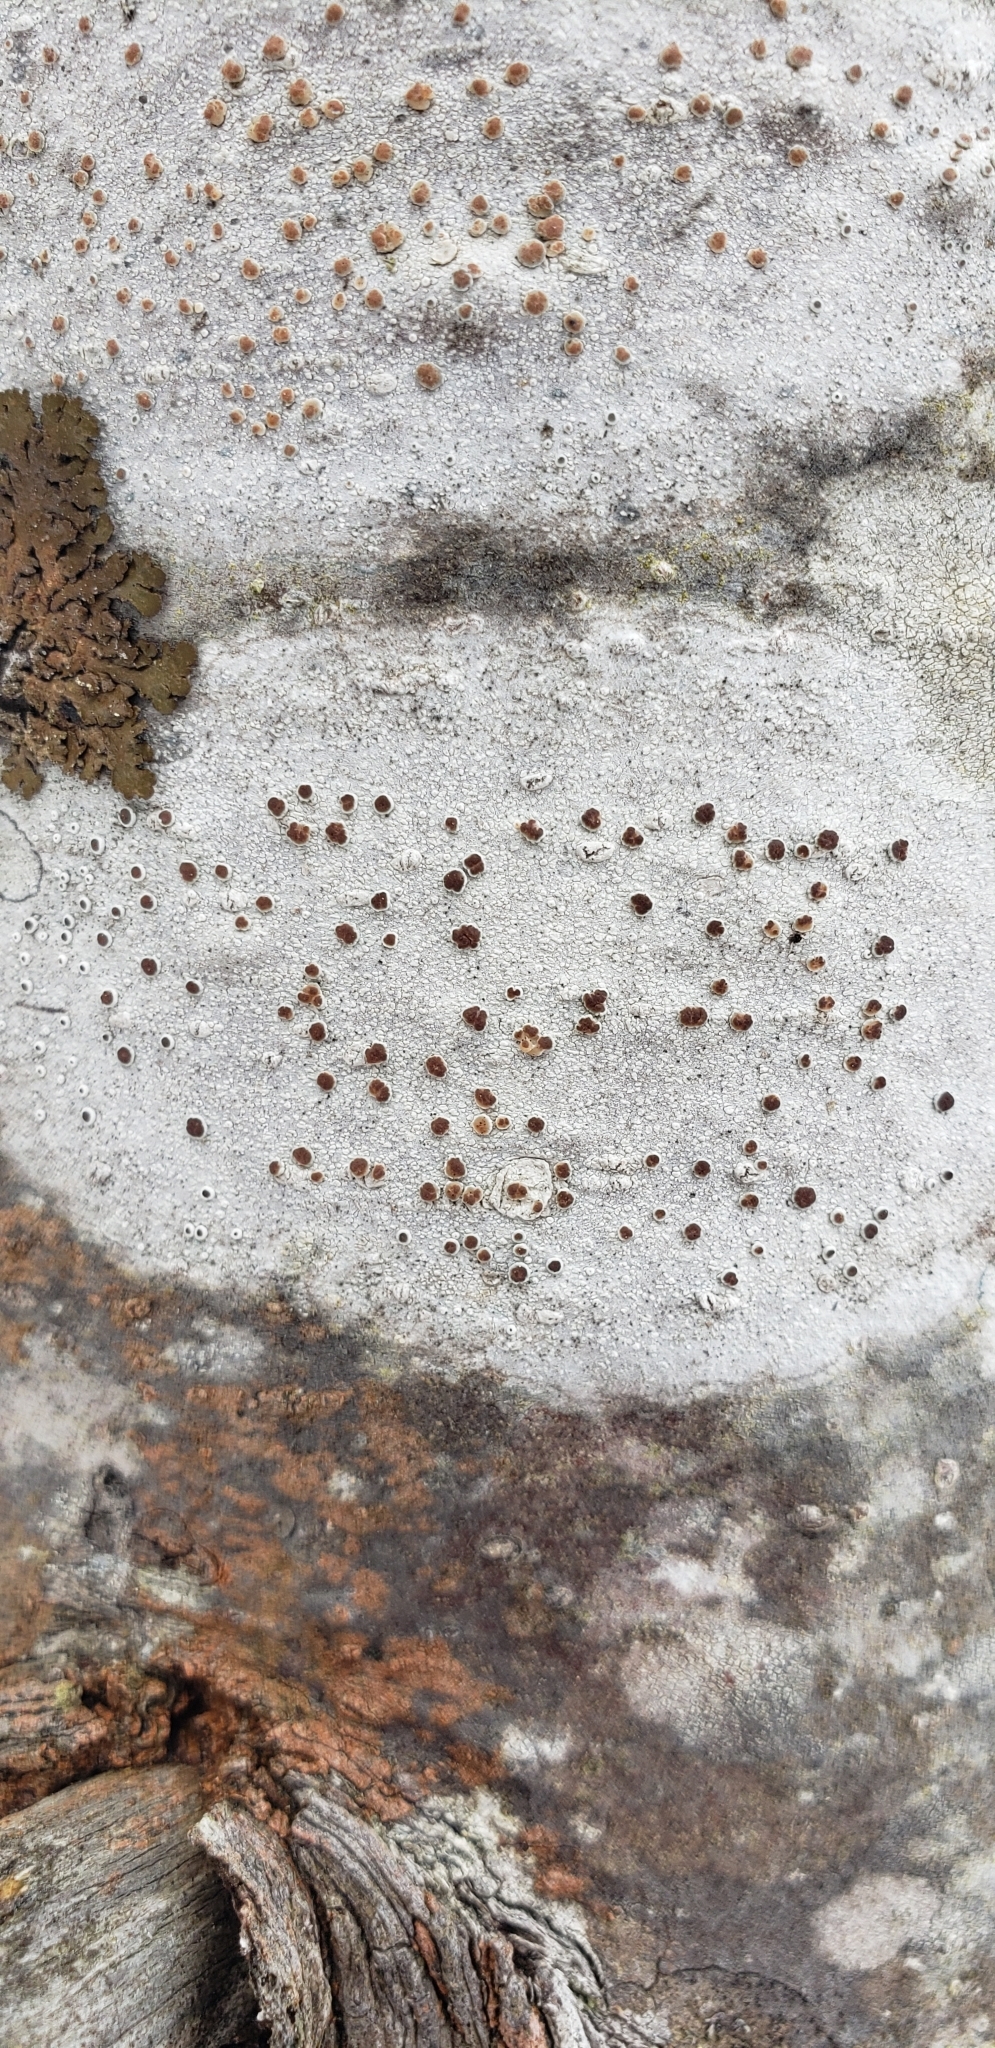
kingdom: Fungi
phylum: Ascomycota
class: Lecanoromycetes
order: Lecanorales
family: Lecanoraceae
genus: Lecanora
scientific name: Lecanora hybocarpa
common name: Bumpy rim-lichen
